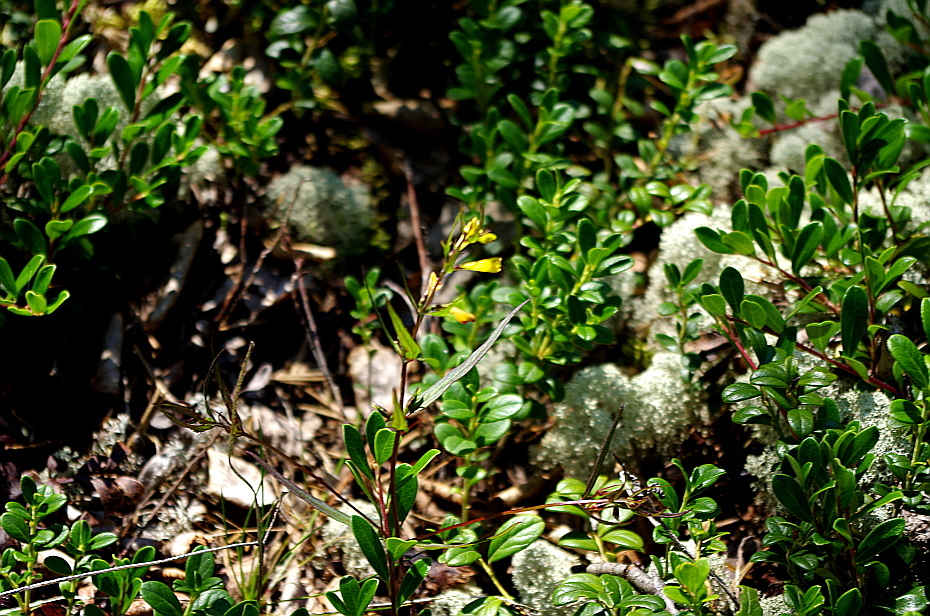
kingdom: Plantae
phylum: Tracheophyta
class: Magnoliopsida
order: Ericales
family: Ericaceae
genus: Arctostaphylos
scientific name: Arctostaphylos uva-ursi
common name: Bearberry
